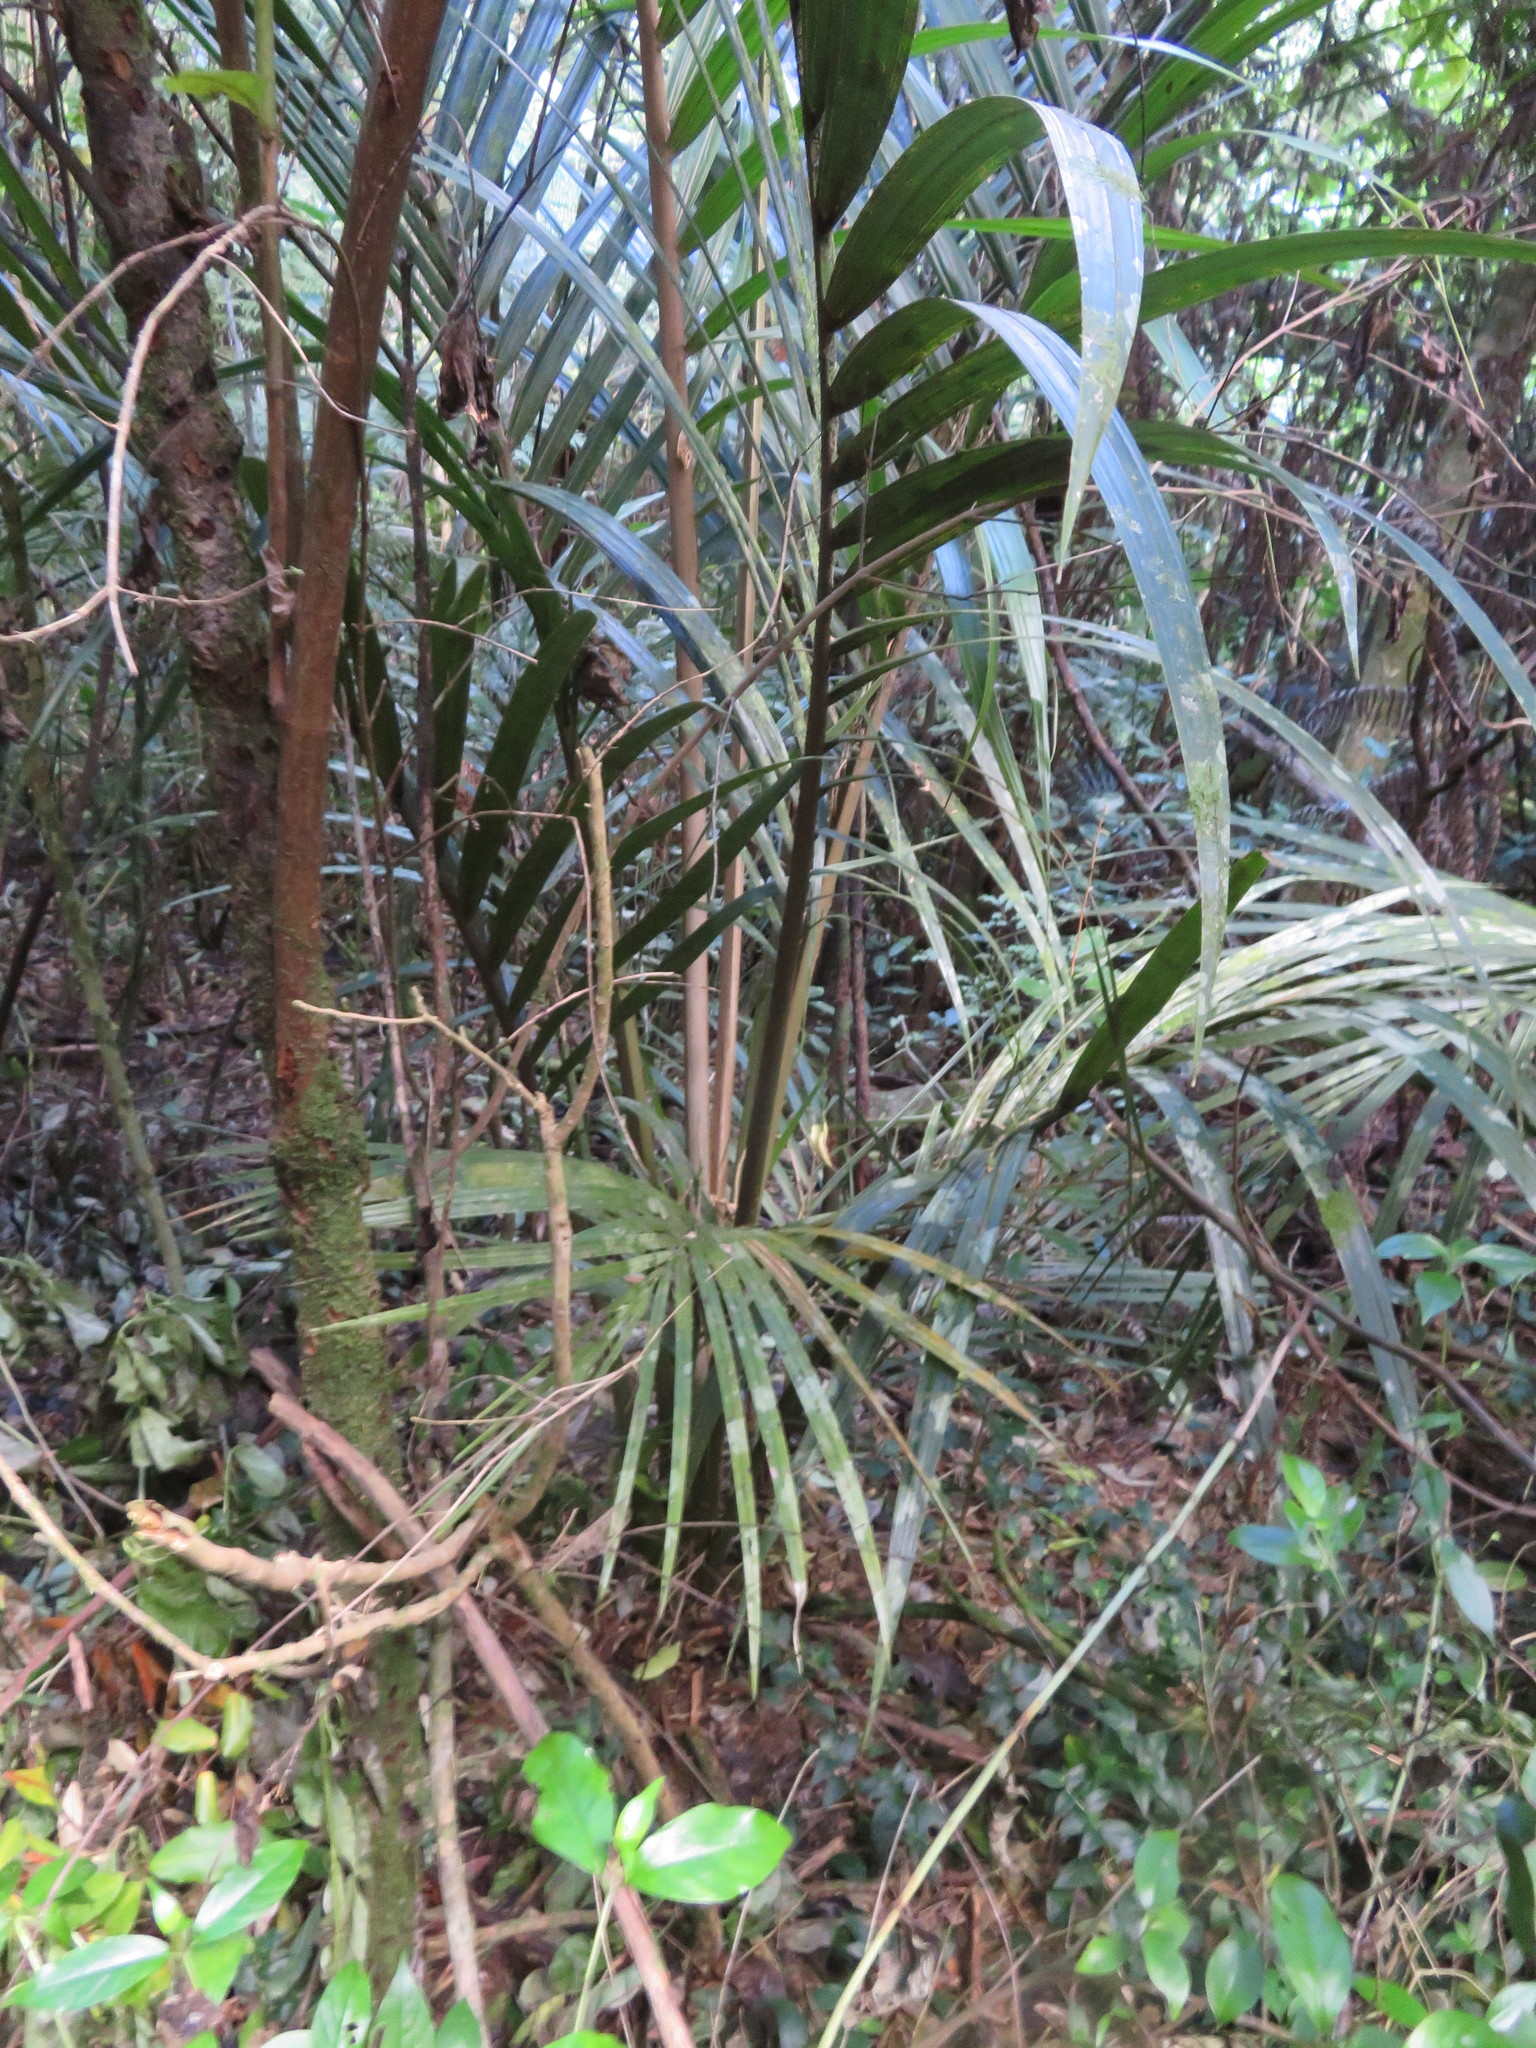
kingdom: Plantae
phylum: Tracheophyta
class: Liliopsida
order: Commelinales
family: Commelinaceae
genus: Tradescantia
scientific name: Tradescantia fluminensis
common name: Wandering-jew
